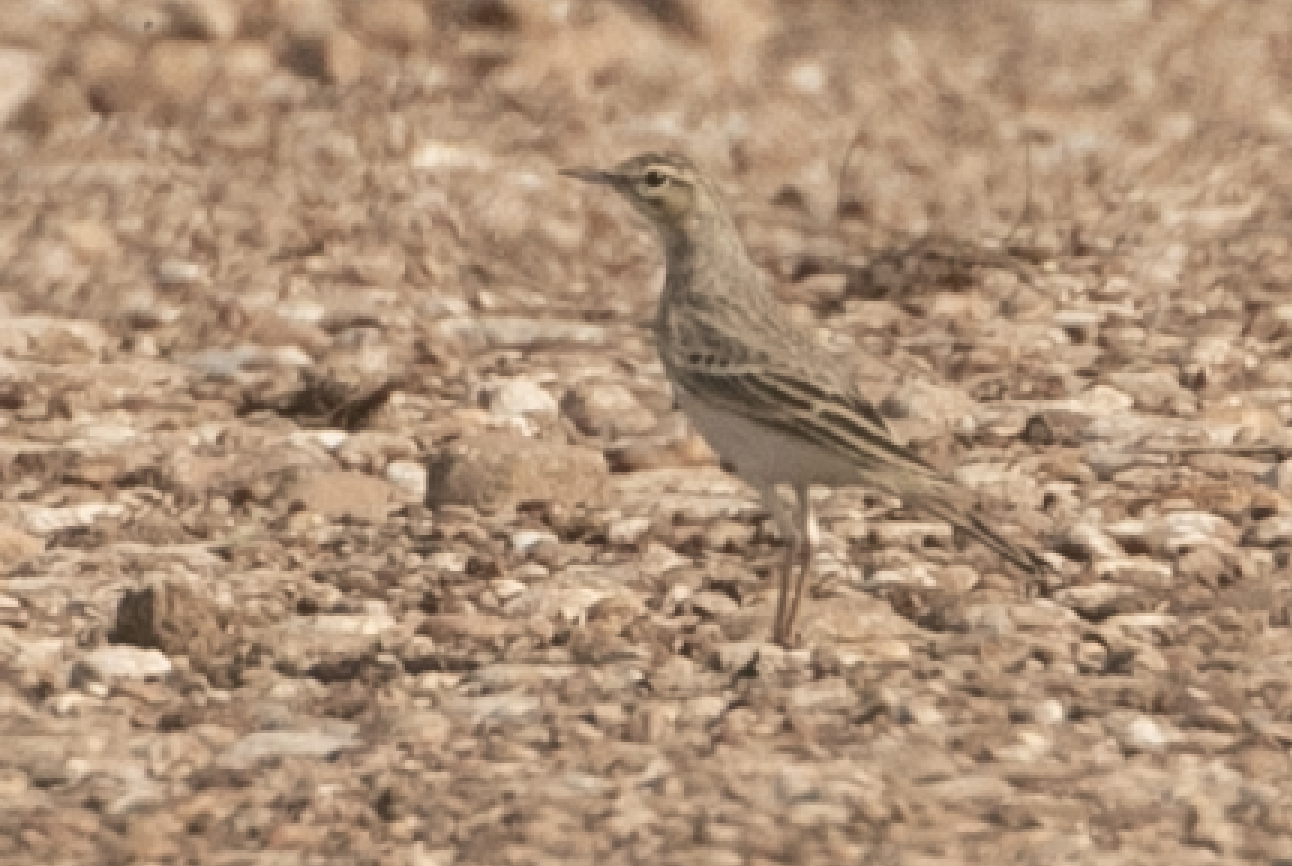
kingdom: Animalia
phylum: Chordata
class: Aves
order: Passeriformes
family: Motacillidae
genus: Anthus
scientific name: Anthus campestris
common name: Tawny pipit
